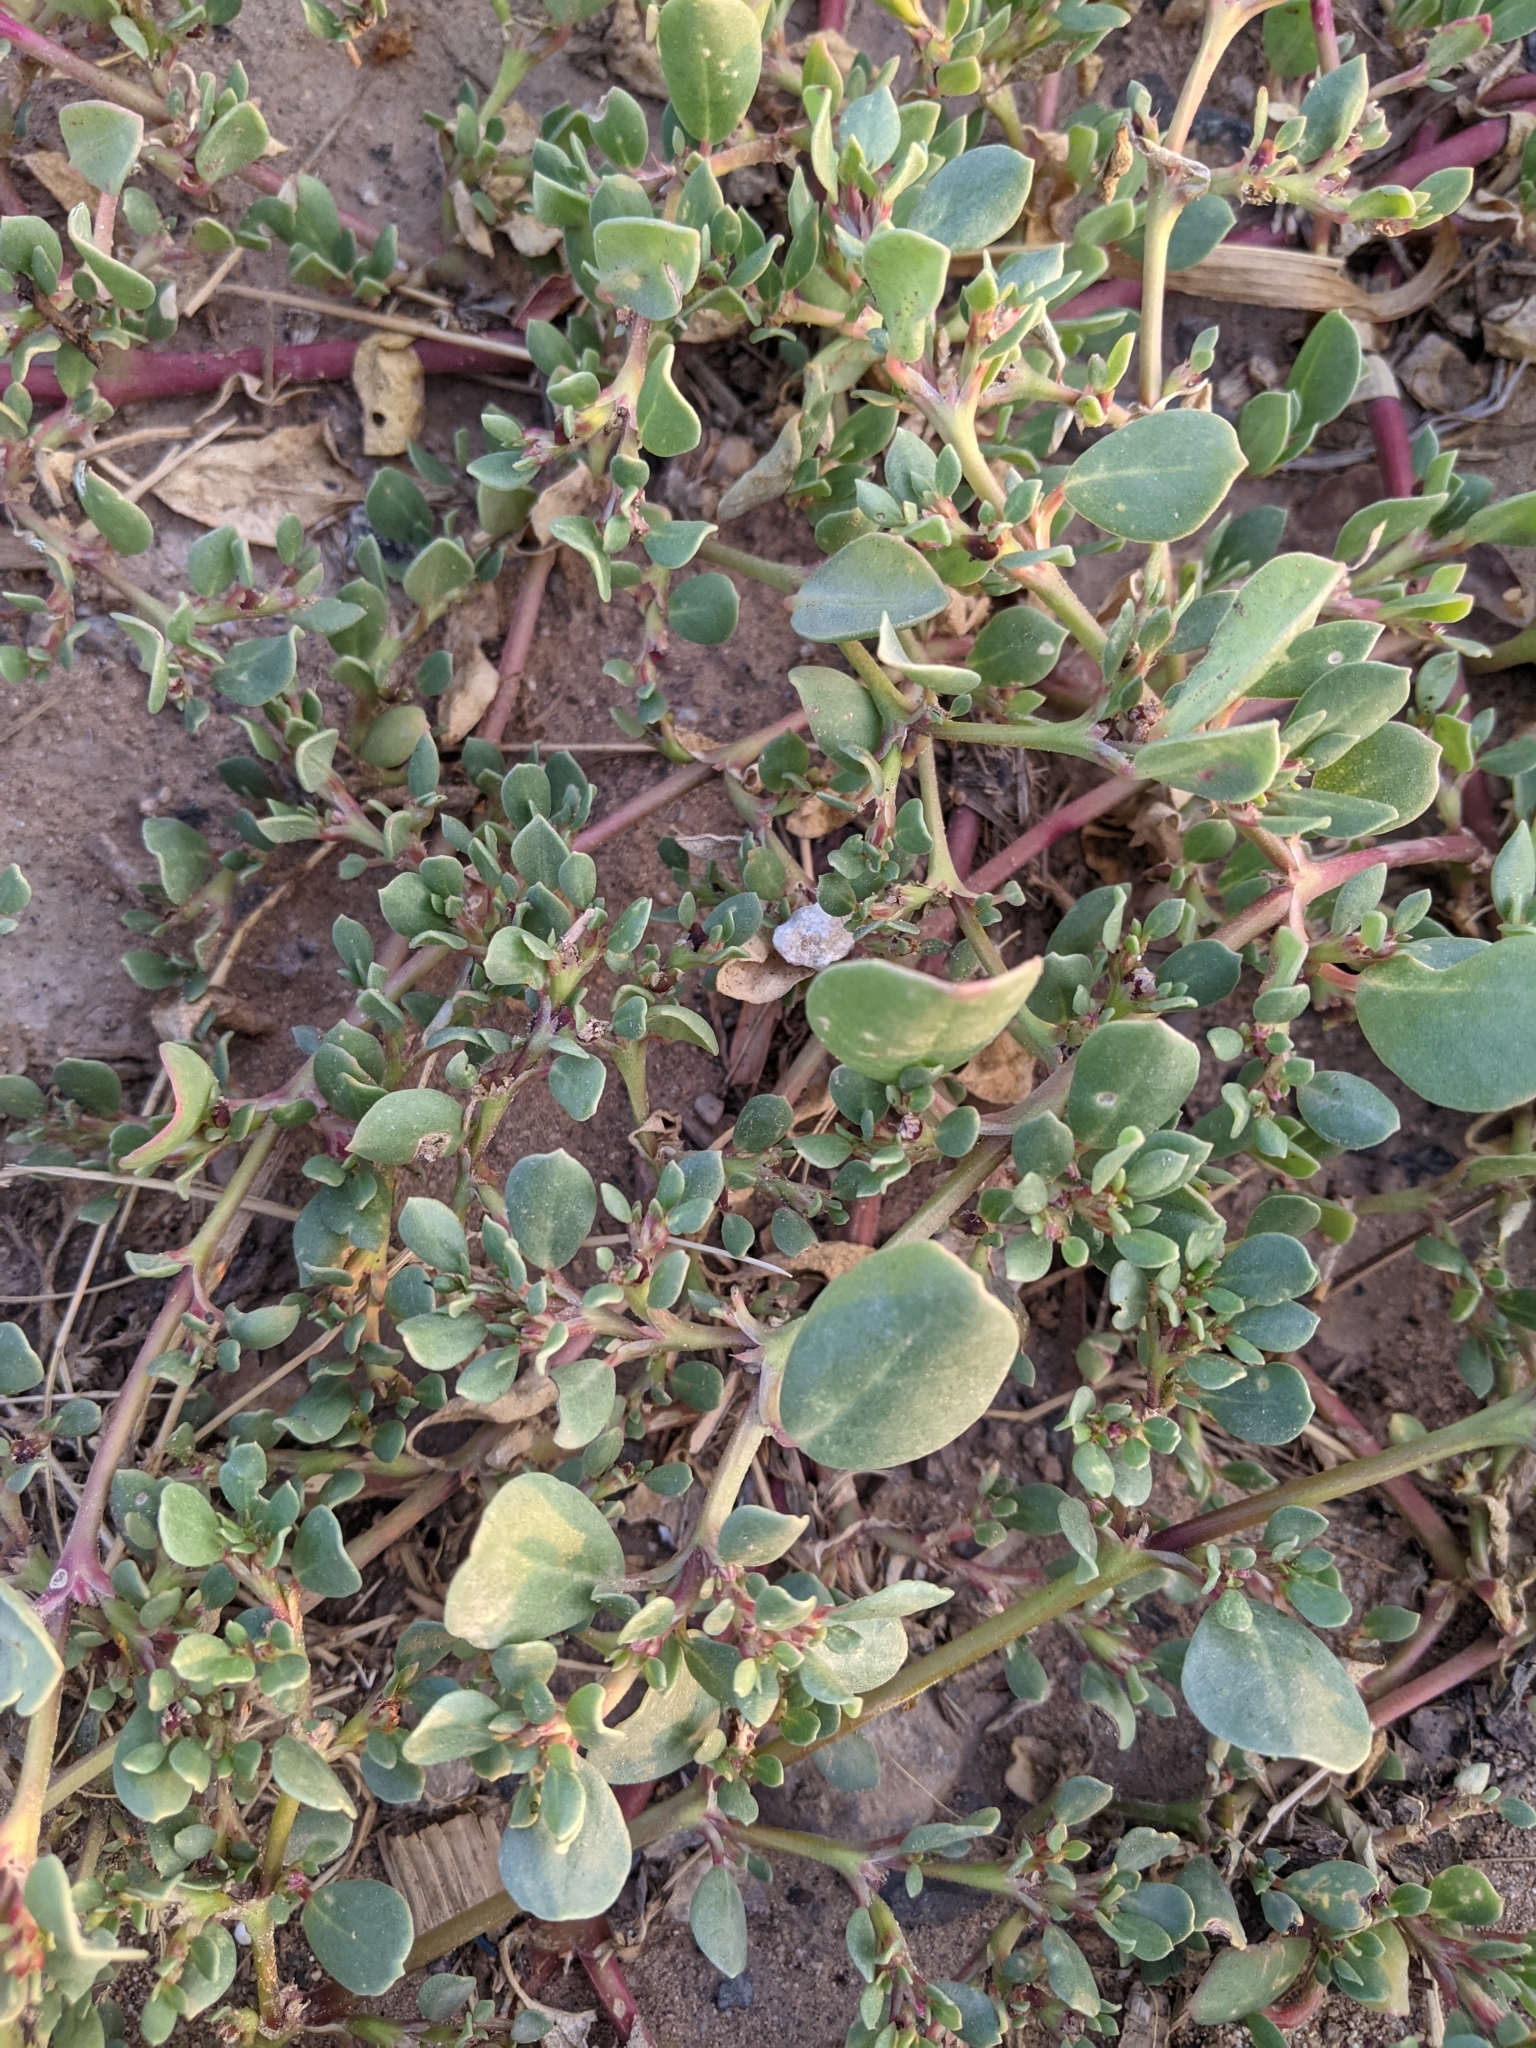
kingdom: Plantae
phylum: Tracheophyta
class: Magnoliopsida
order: Caryophyllales
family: Aizoaceae
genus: Trianthema
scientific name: Trianthema portulacastrum
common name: Desert horsepurslane
